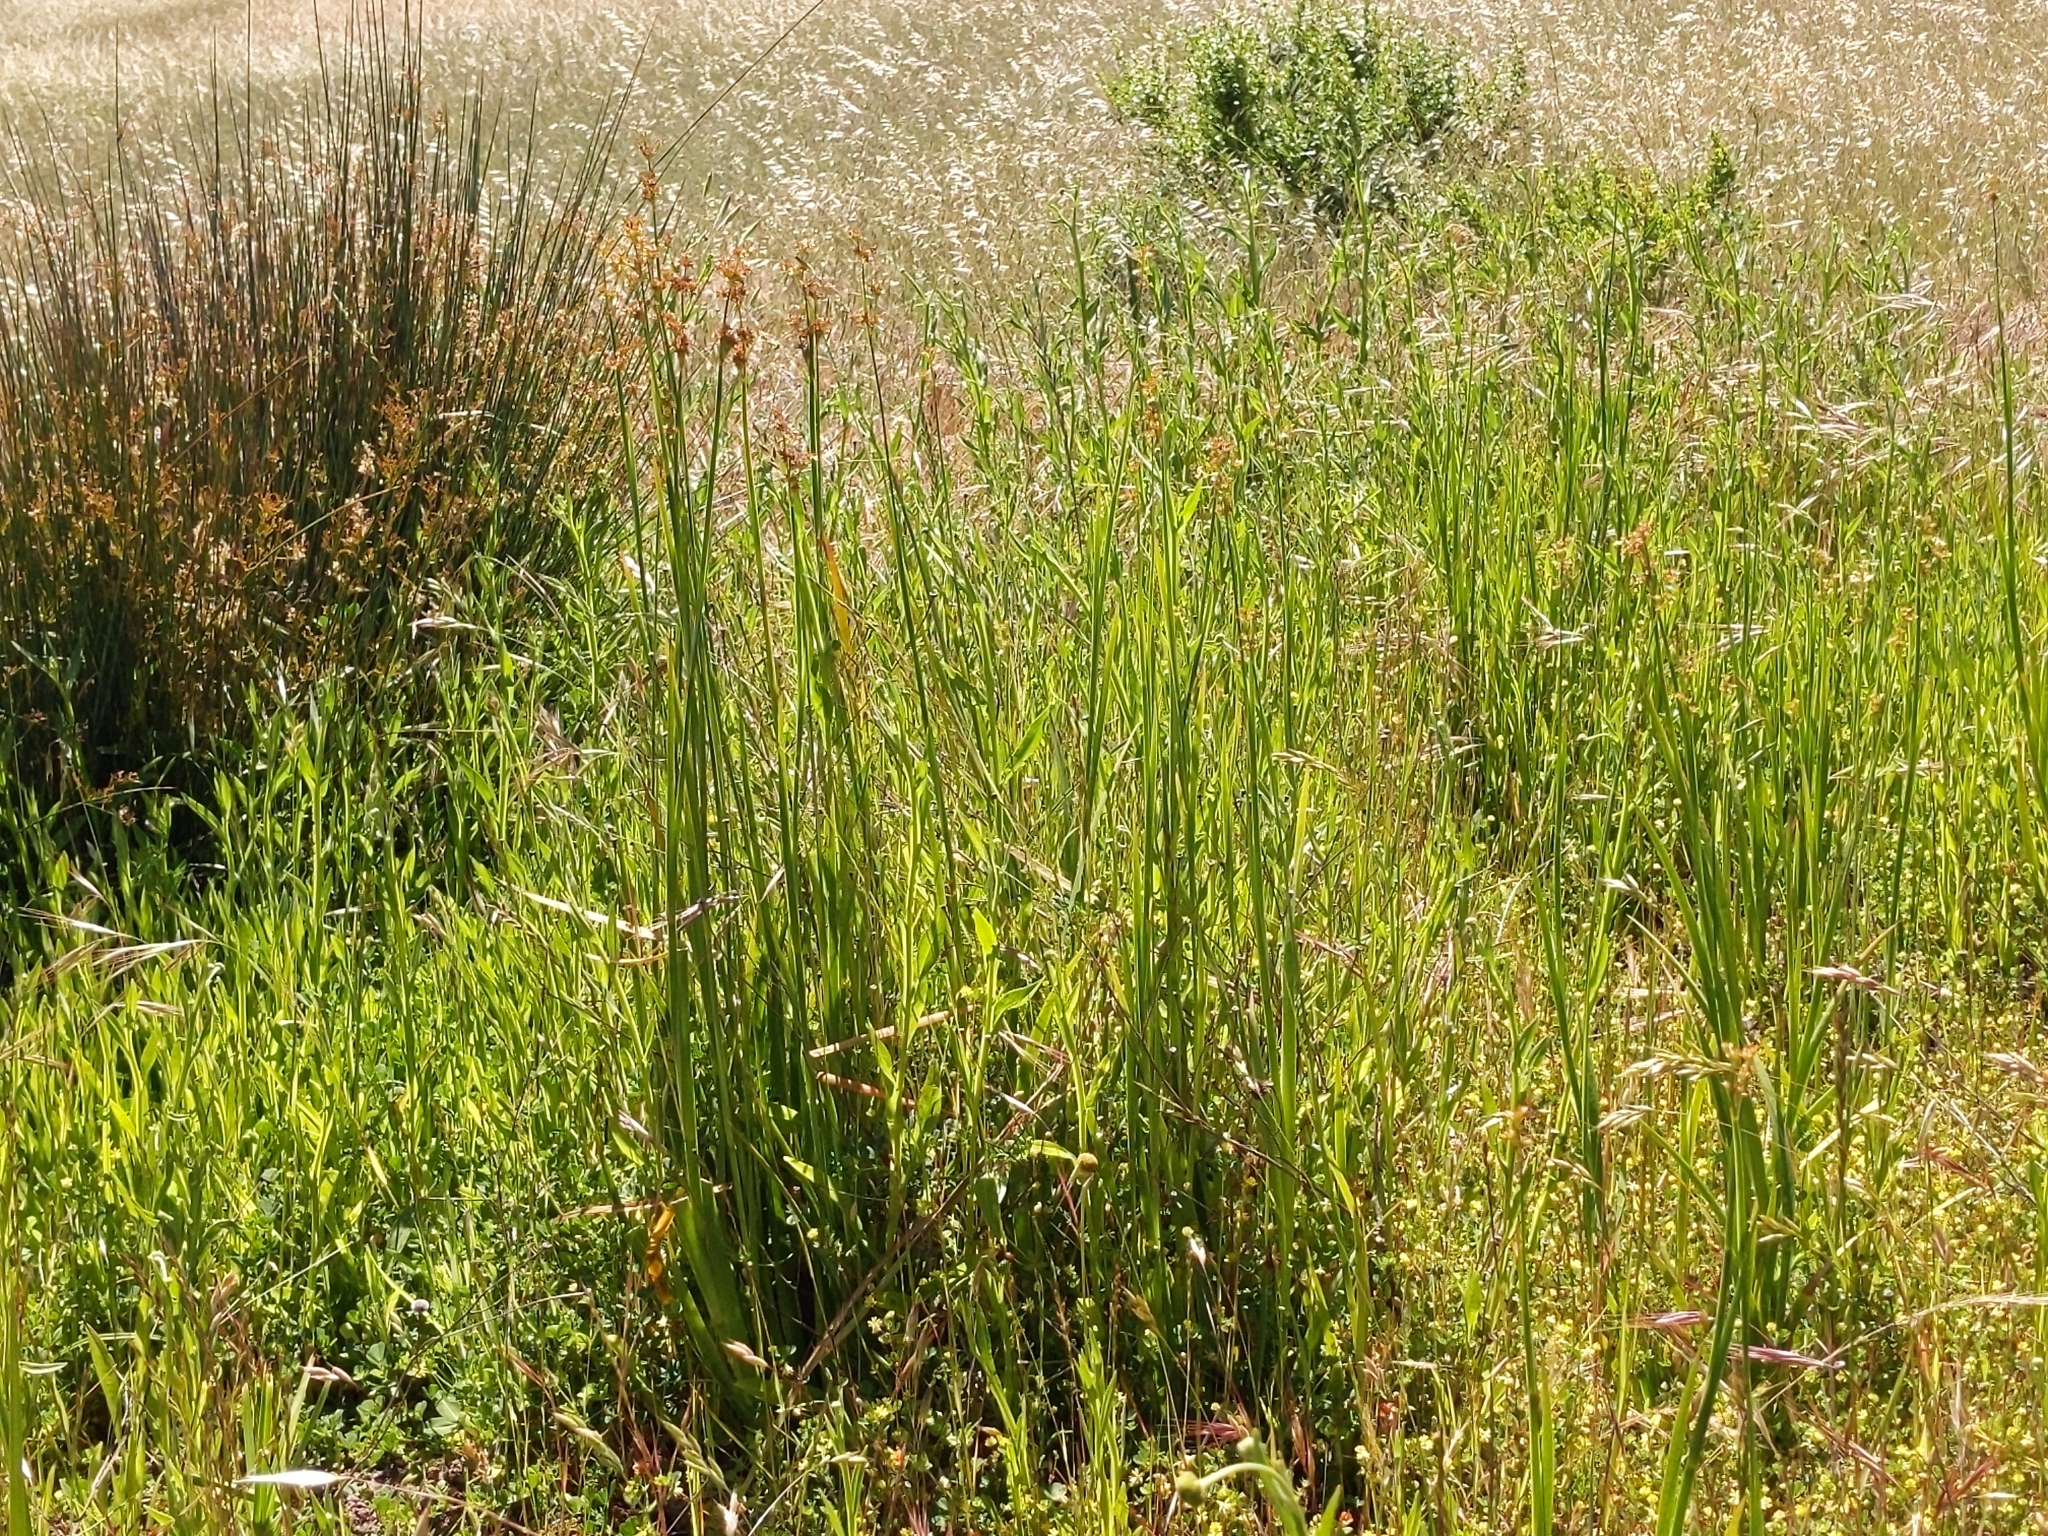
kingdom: Plantae
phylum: Tracheophyta
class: Liliopsida
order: Poales
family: Juncaceae
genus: Juncus
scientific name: Juncus xiphioides
